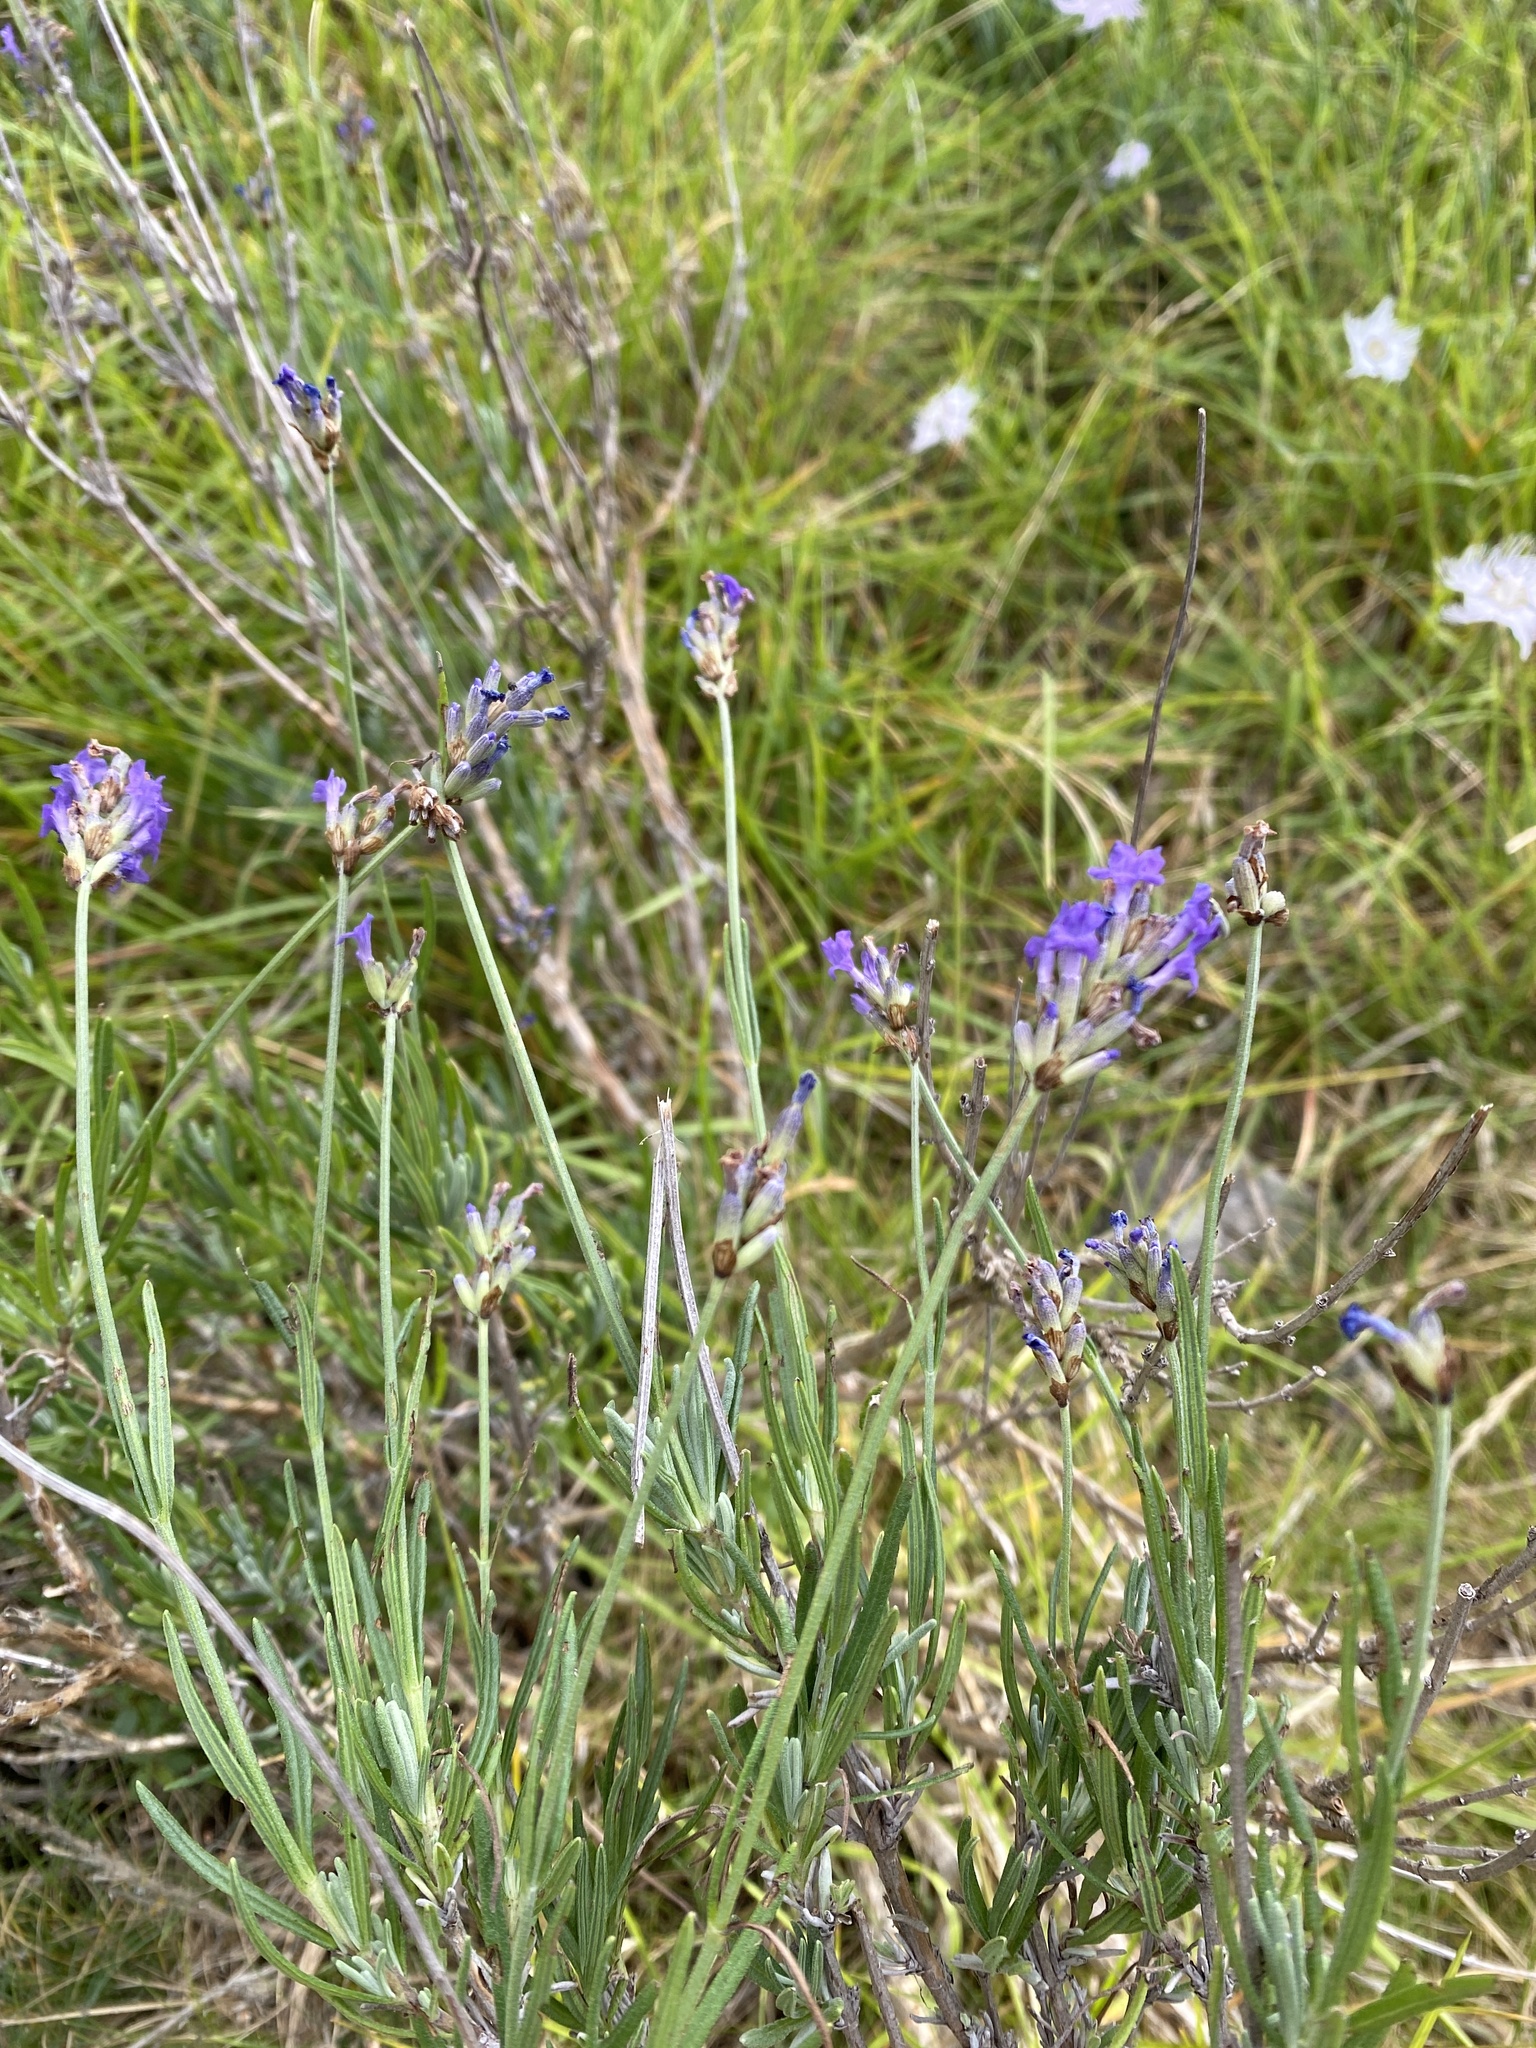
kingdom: Plantae
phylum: Tracheophyta
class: Magnoliopsida
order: Lamiales
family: Lamiaceae
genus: Lavandula
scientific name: Lavandula angustifolia
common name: Garden lavender
